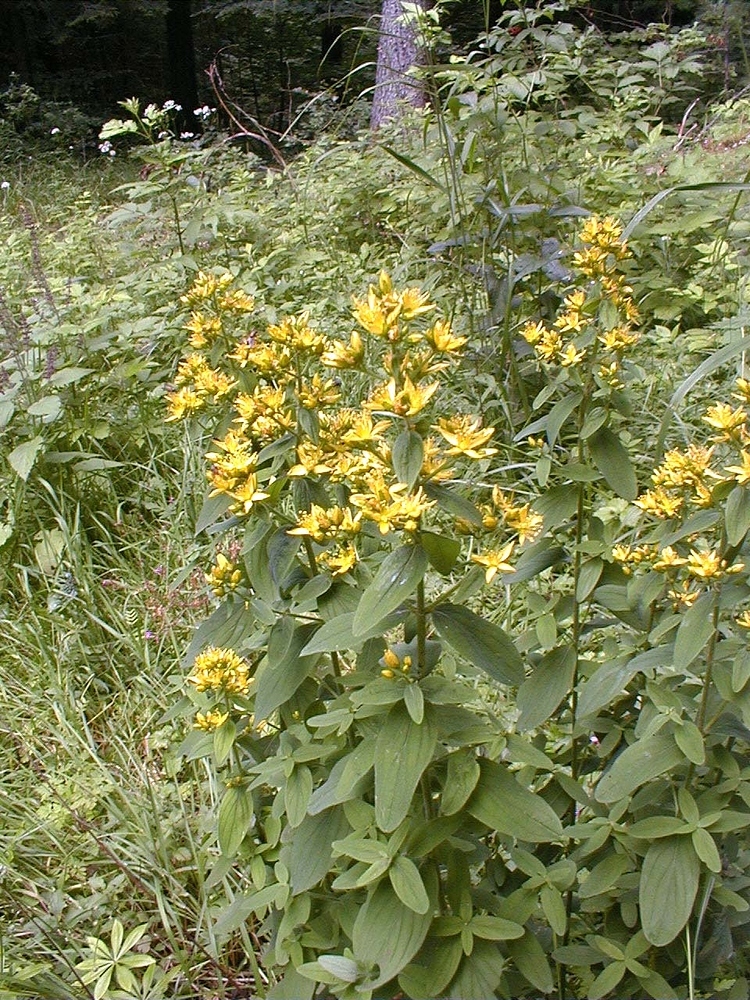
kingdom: Plantae
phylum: Tracheophyta
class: Magnoliopsida
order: Malpighiales
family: Hypericaceae
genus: Hypericum
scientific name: Hypericum hirsutum
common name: Hairy st. john's-wort
